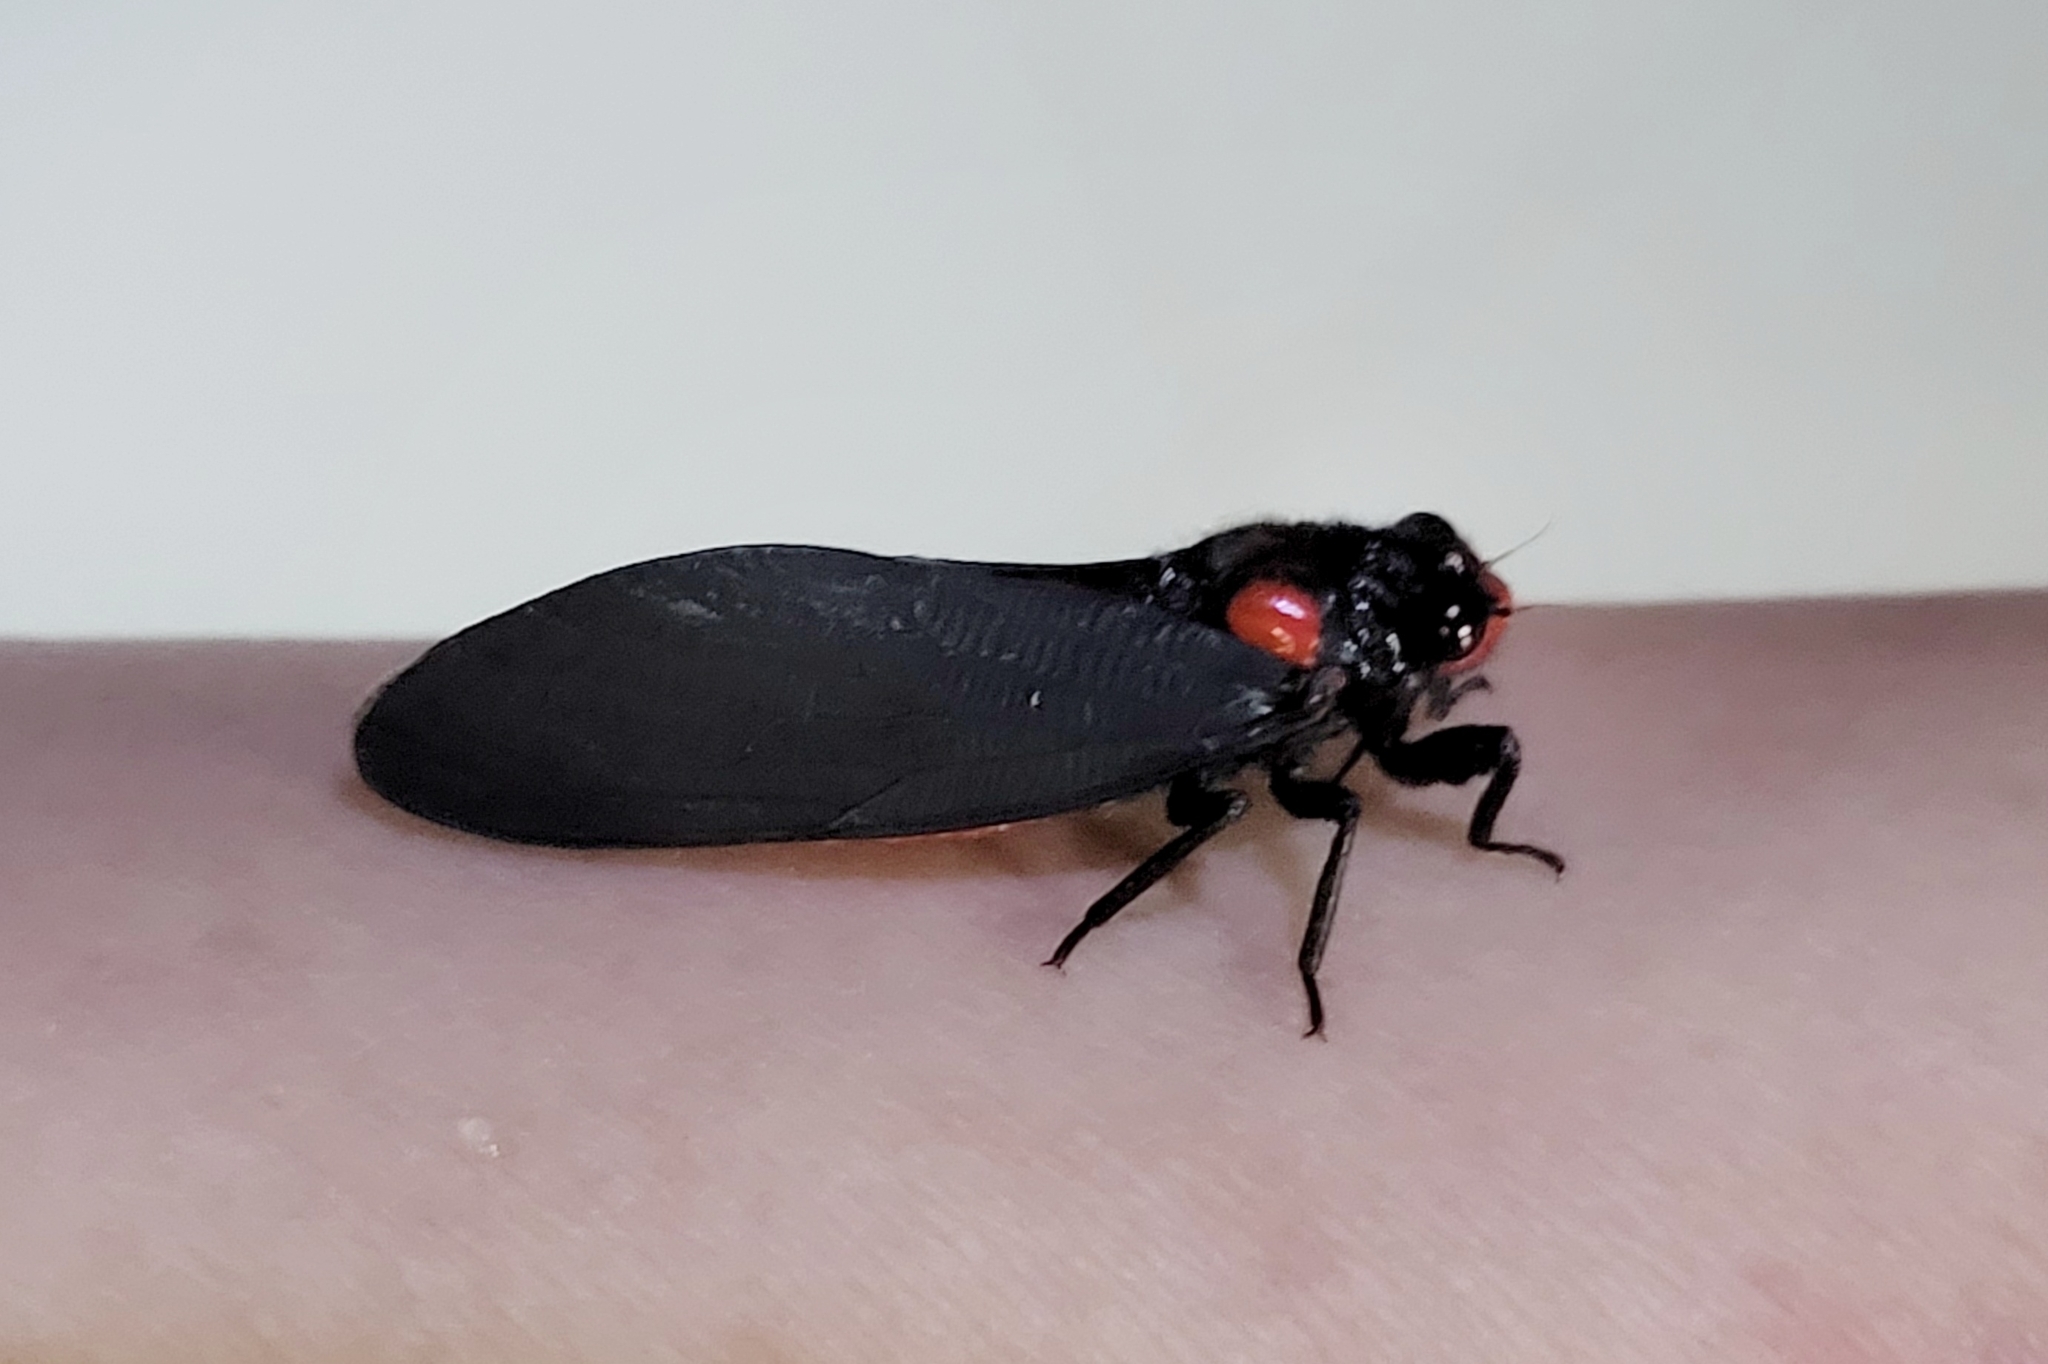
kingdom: Animalia
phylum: Arthropoda
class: Insecta
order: Hemiptera
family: Cicadidae
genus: Huechys
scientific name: Huechys sanguinea
